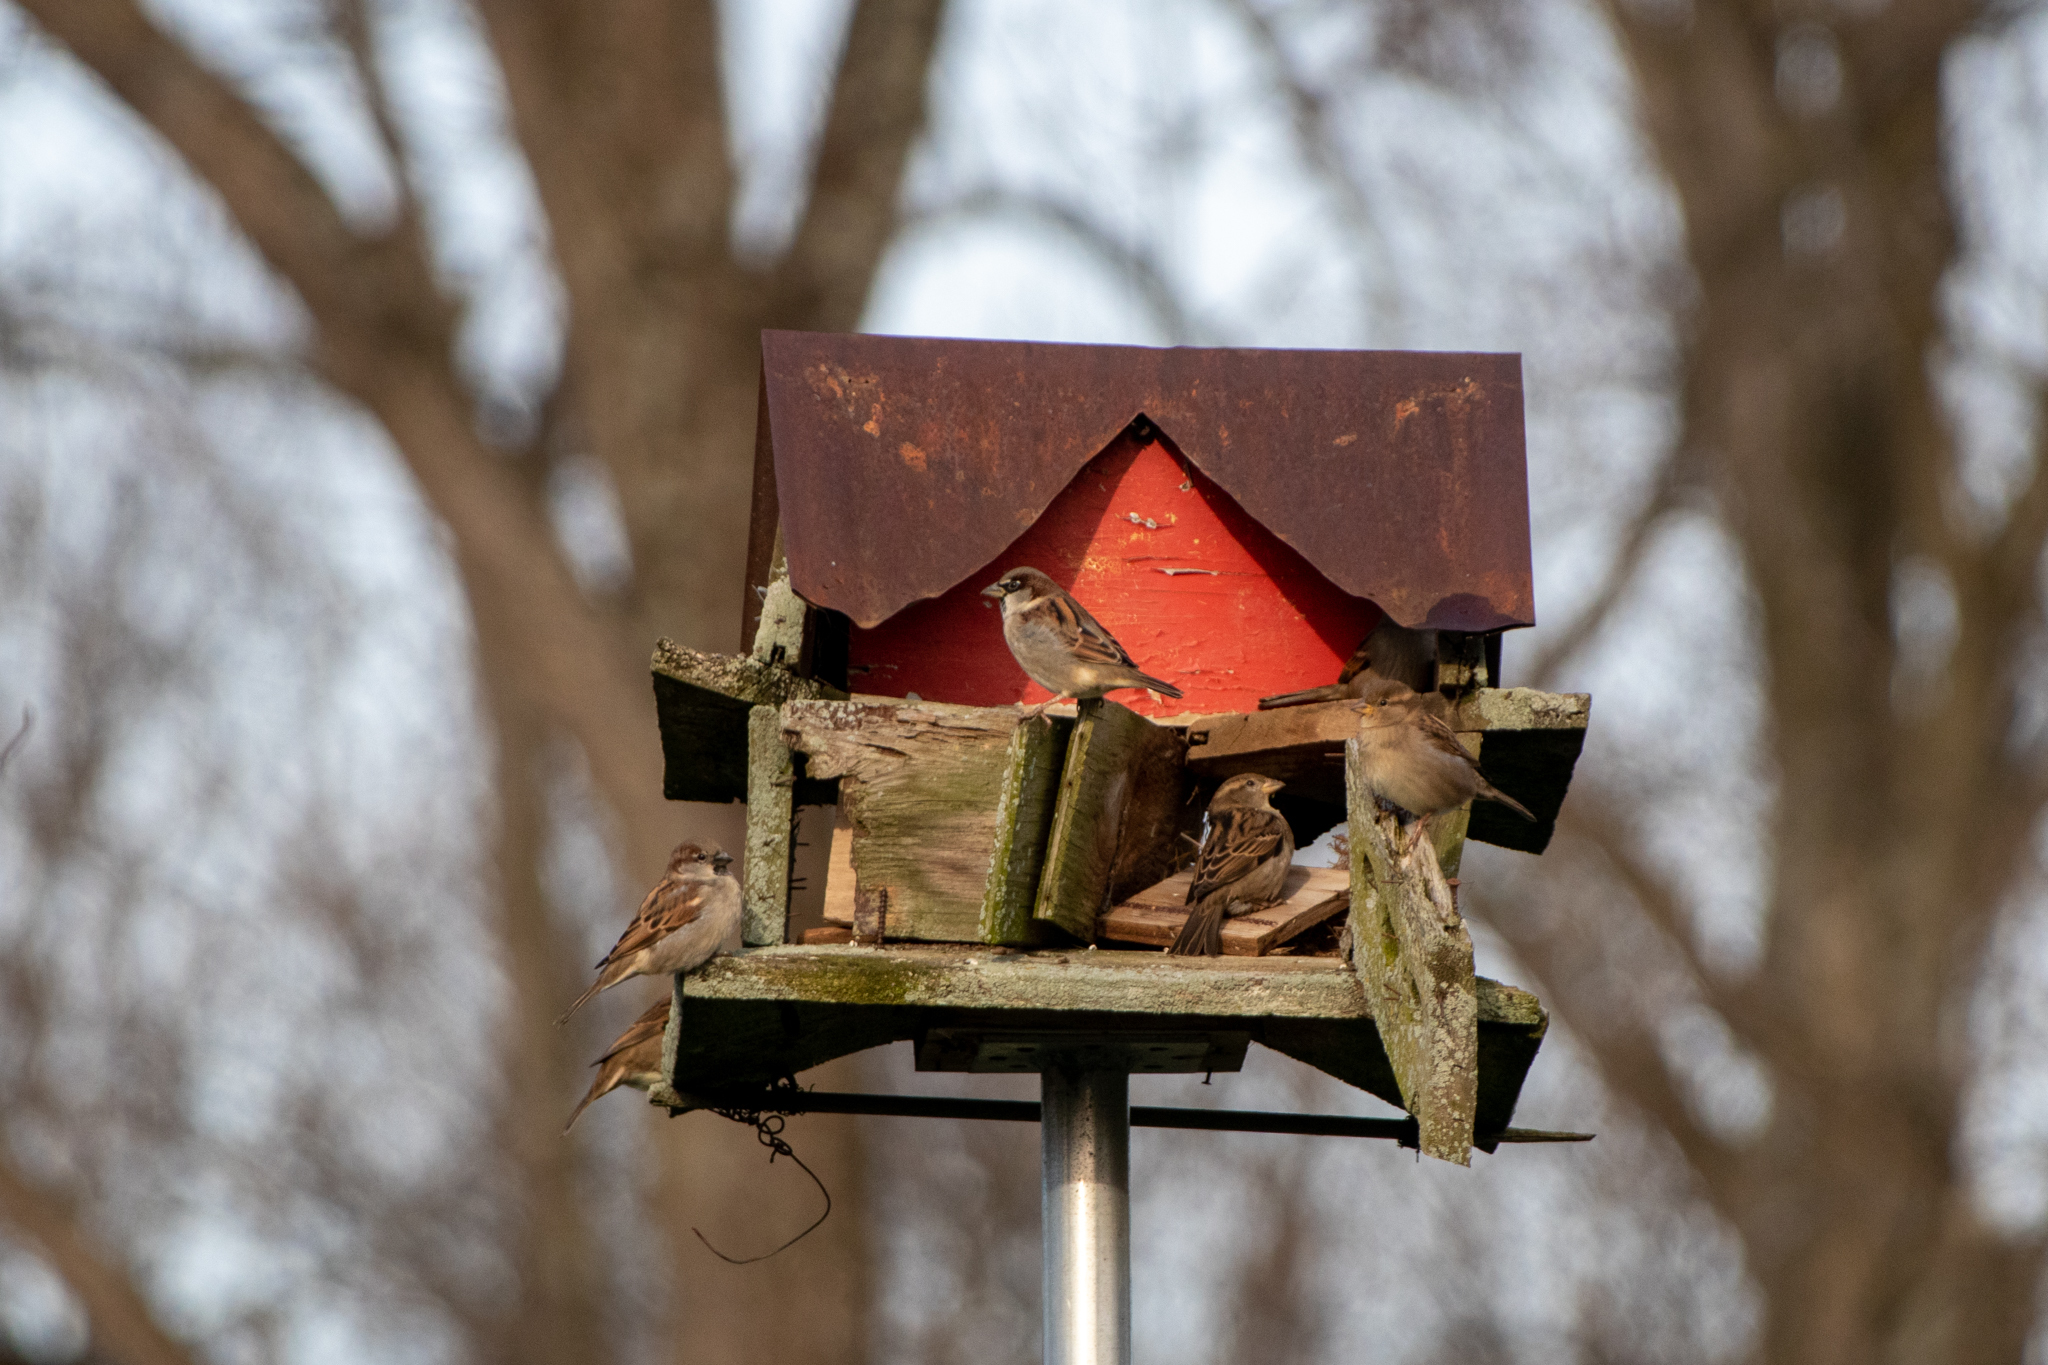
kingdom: Animalia
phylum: Chordata
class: Aves
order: Passeriformes
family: Passeridae
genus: Passer
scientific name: Passer domesticus
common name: House sparrow
